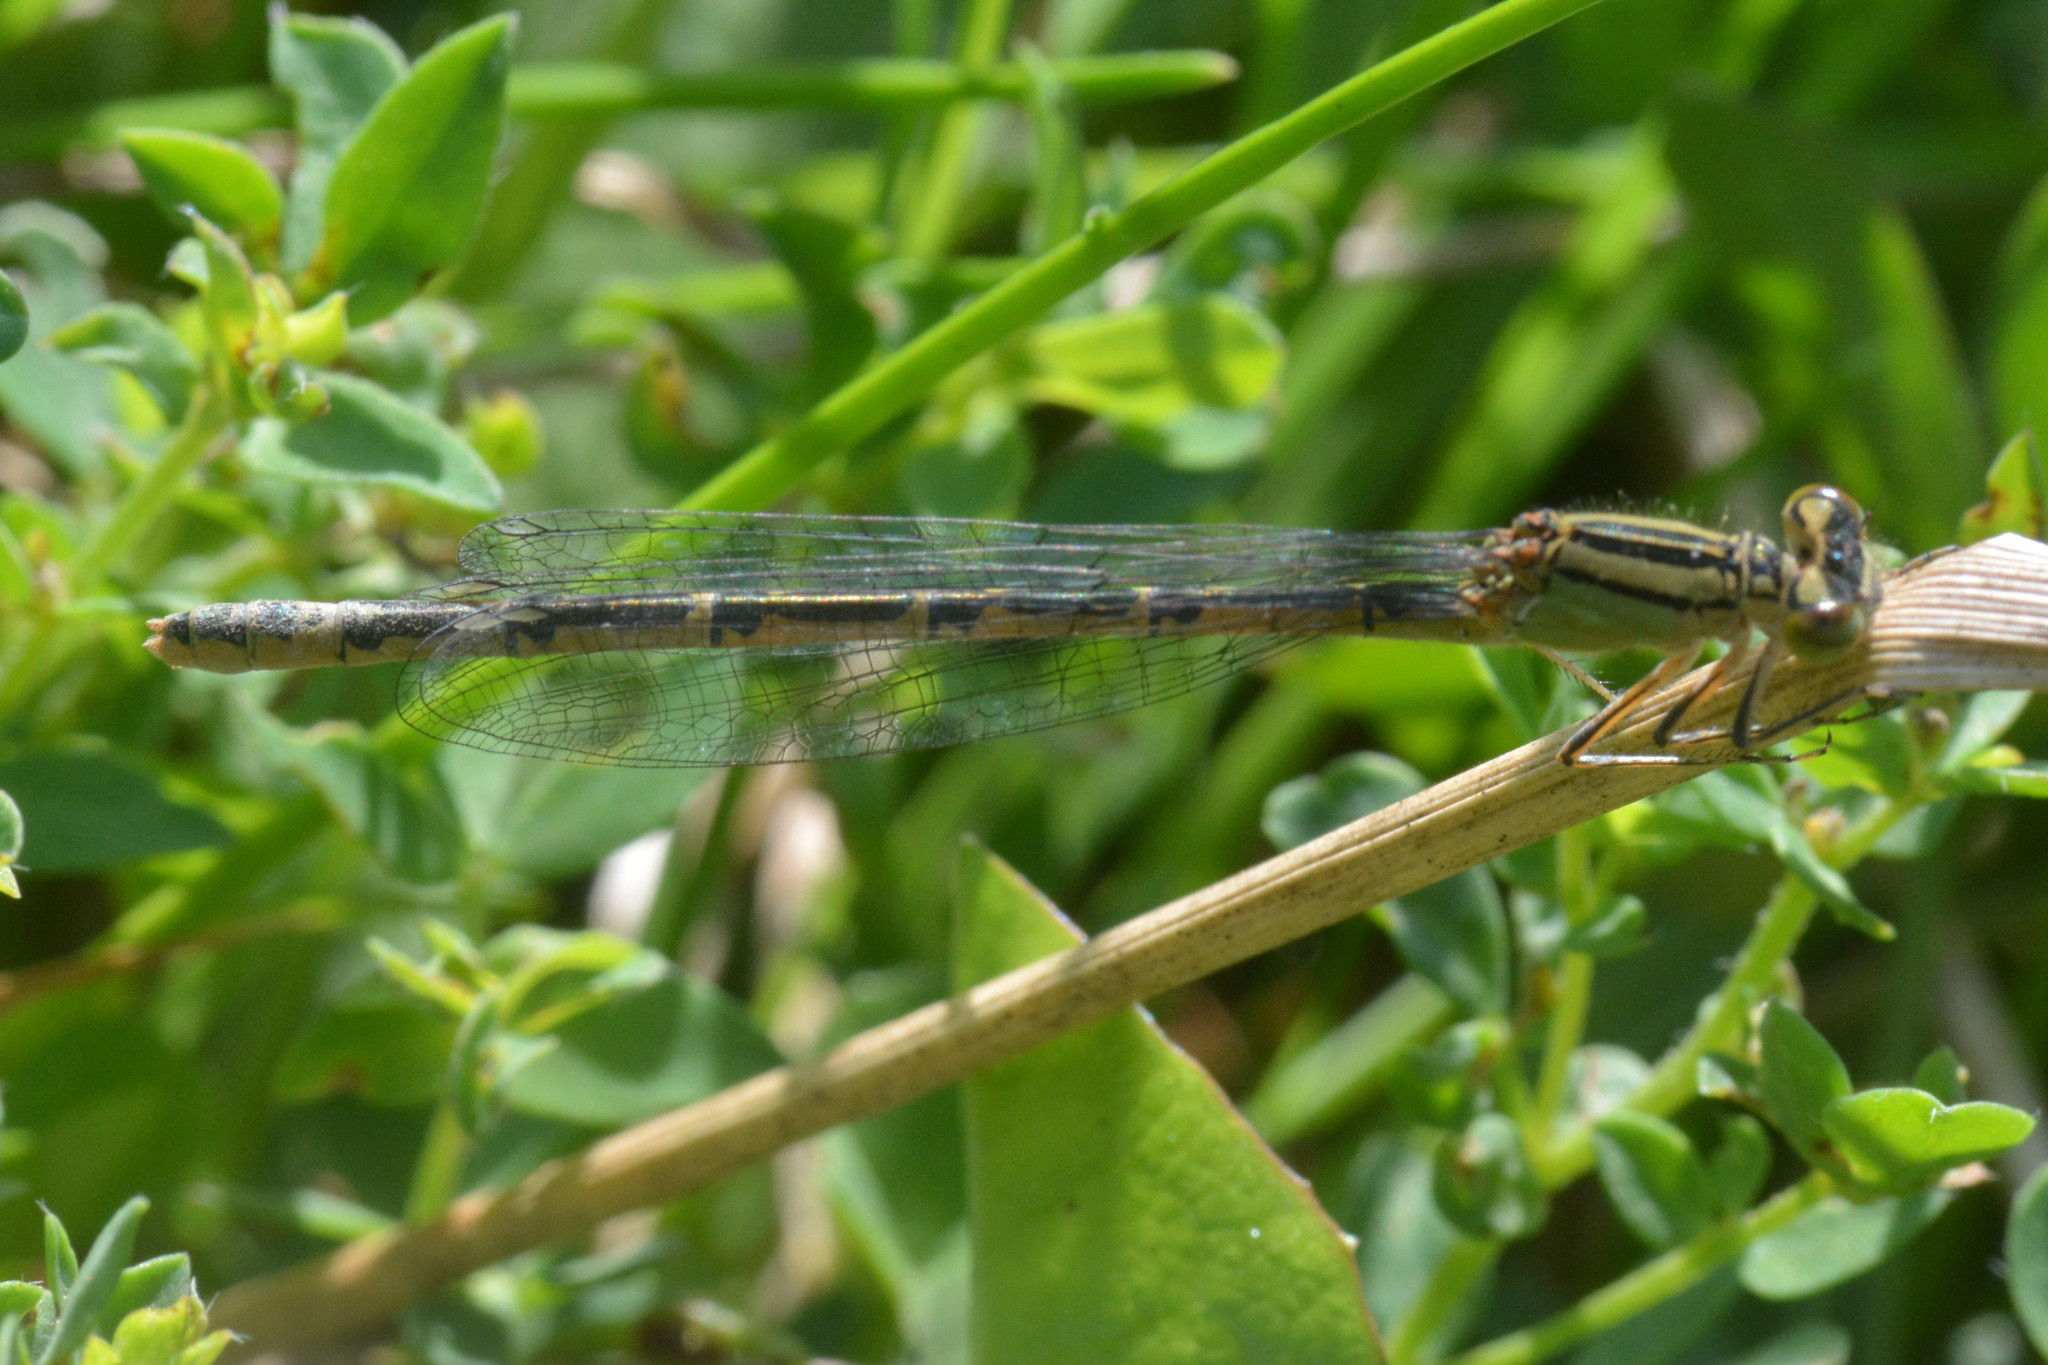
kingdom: Animalia
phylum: Arthropoda
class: Insecta
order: Odonata
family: Coenagrionidae
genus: Enallagma
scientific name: Enallagma cyathigerum
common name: Common blue damselfly
